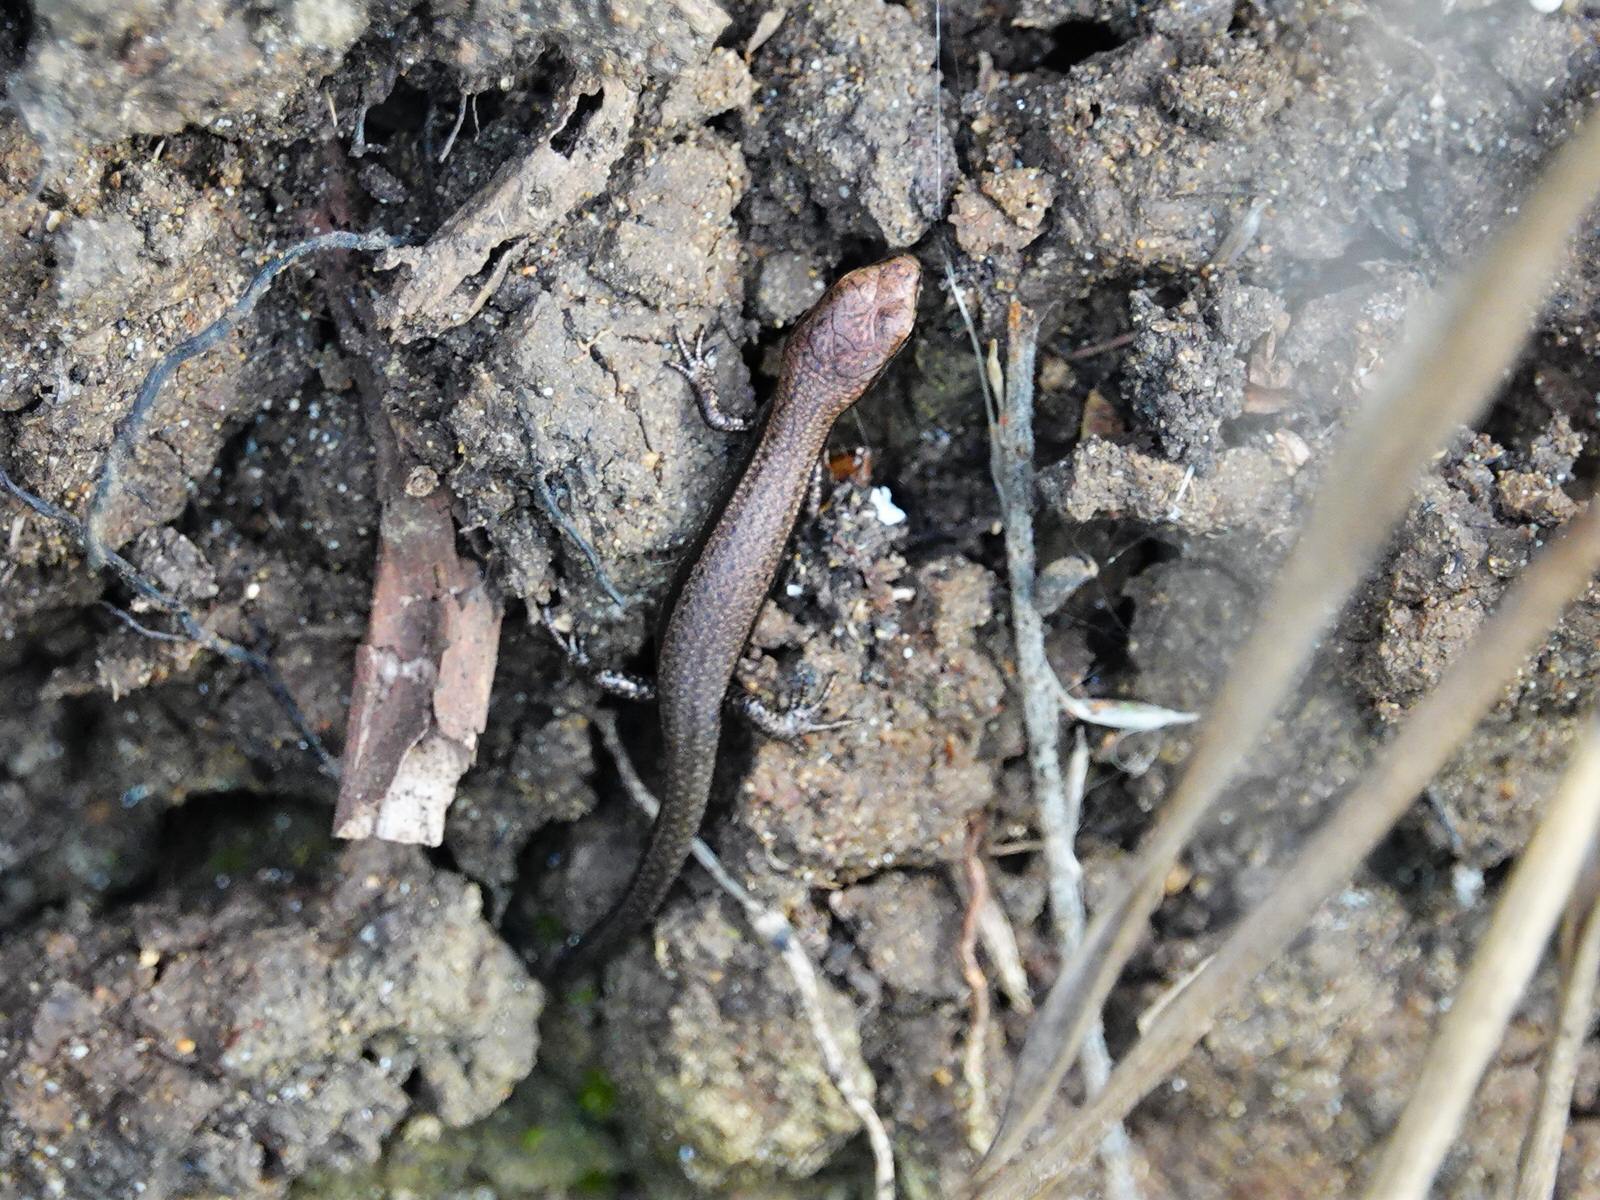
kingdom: Animalia
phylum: Chordata
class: Squamata
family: Scincidae
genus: Lampropholis
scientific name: Lampropholis delicata
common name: Plague skink
